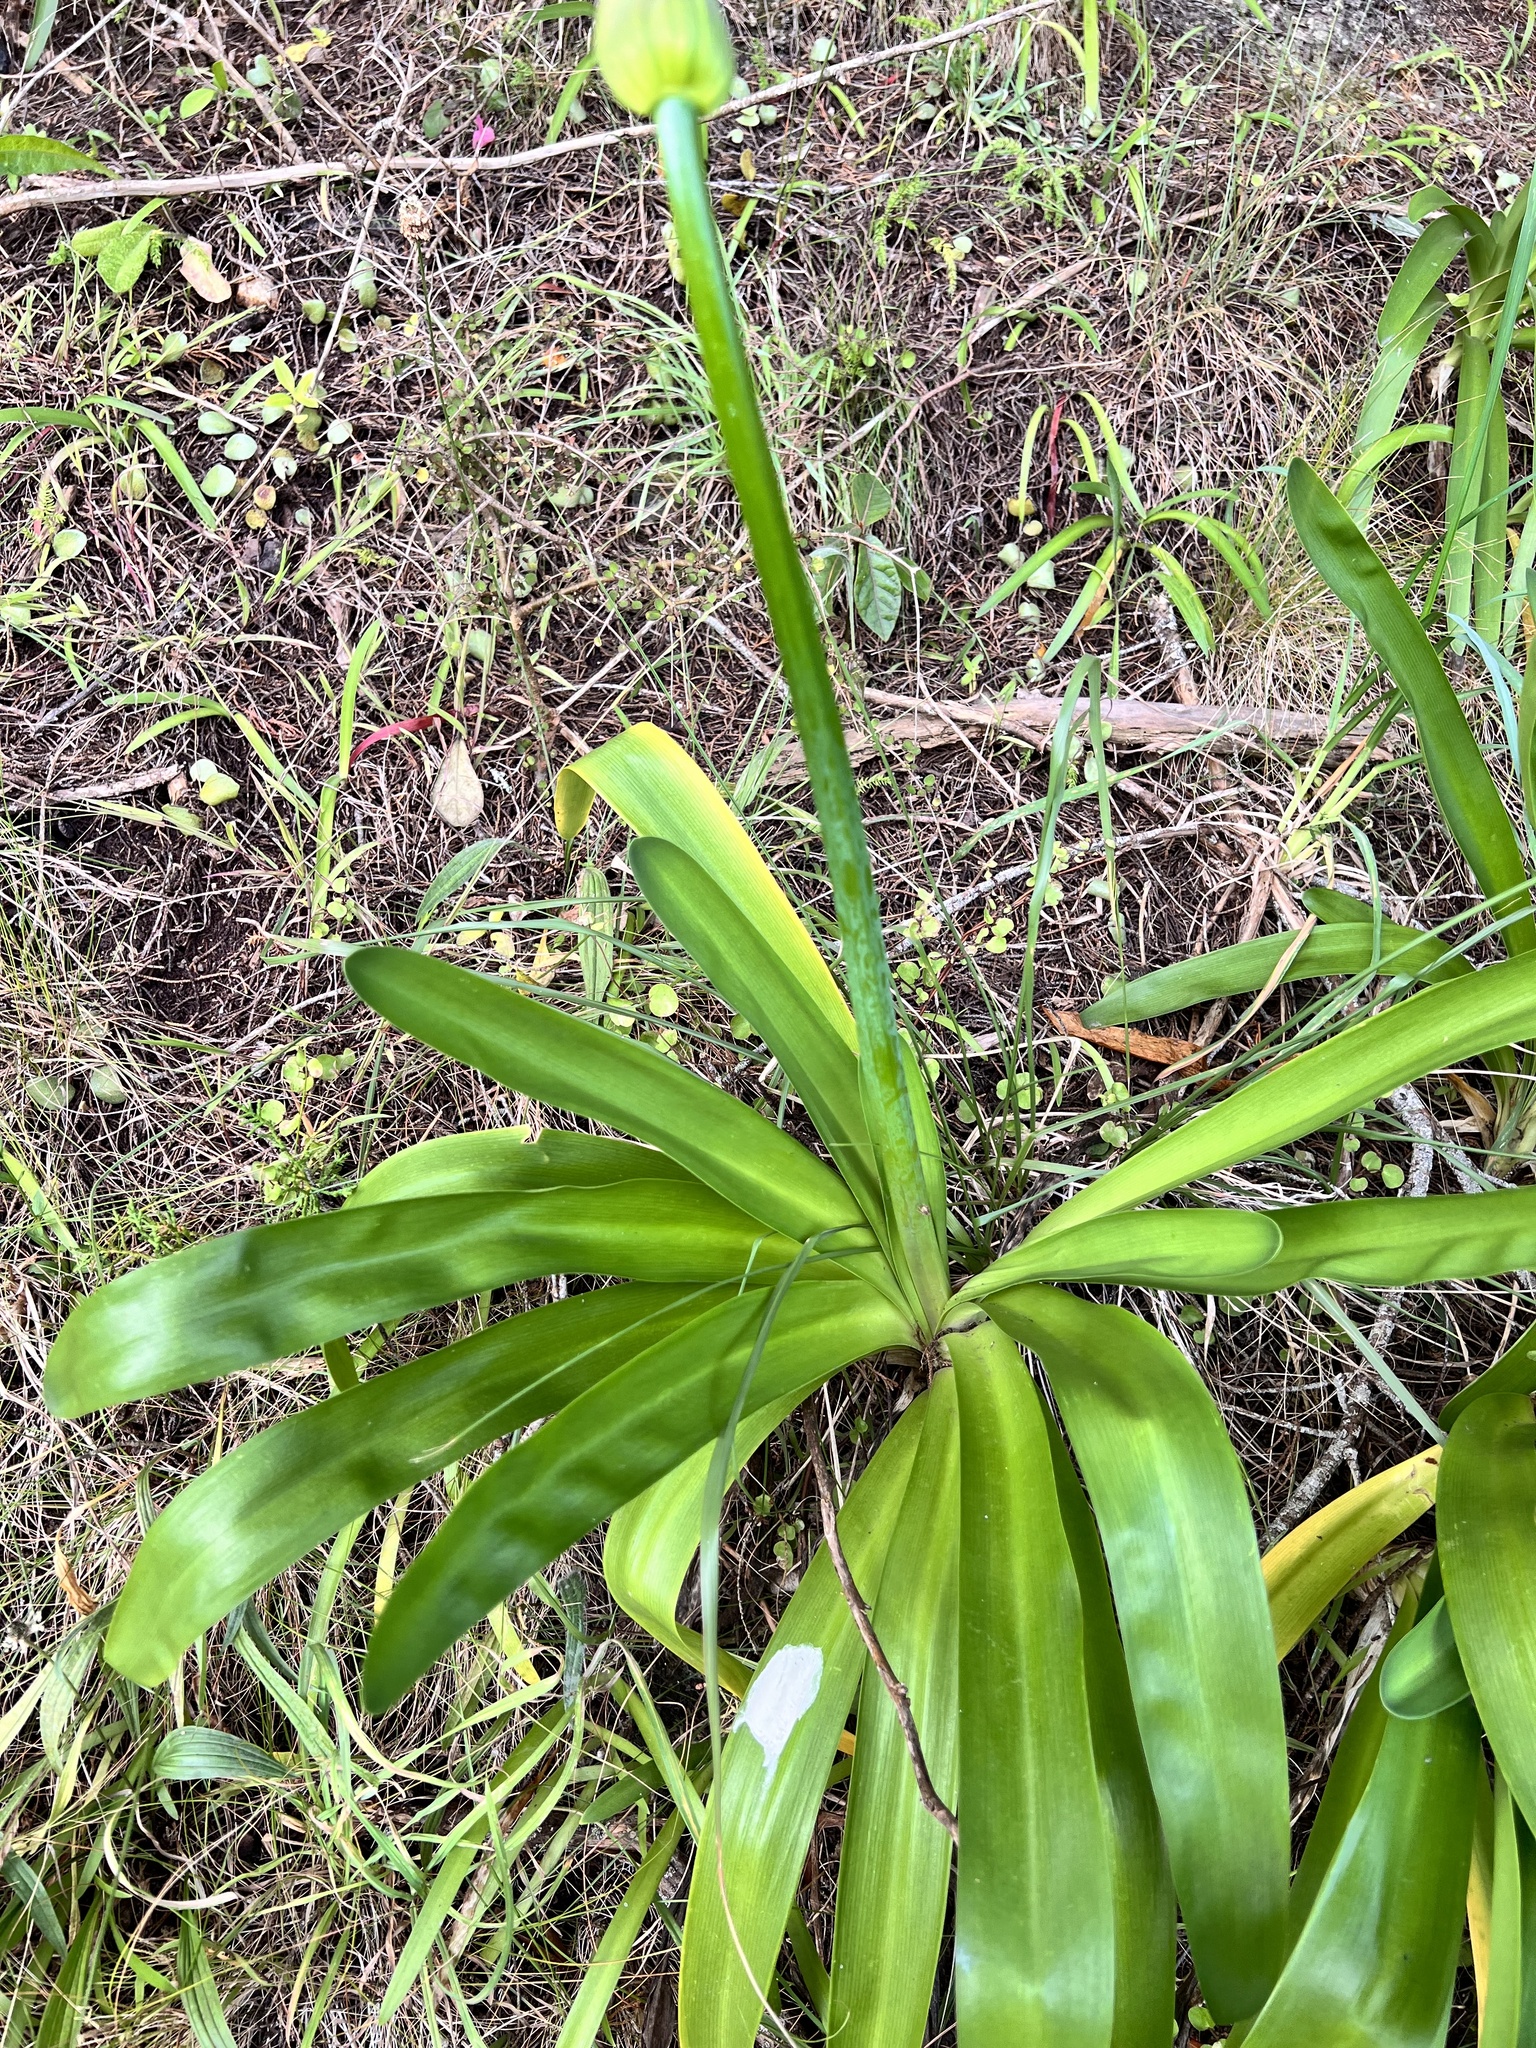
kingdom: Plantae
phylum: Tracheophyta
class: Liliopsida
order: Asparagales
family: Amaryllidaceae
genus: Agapanthus
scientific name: Agapanthus praecox
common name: African-lily
